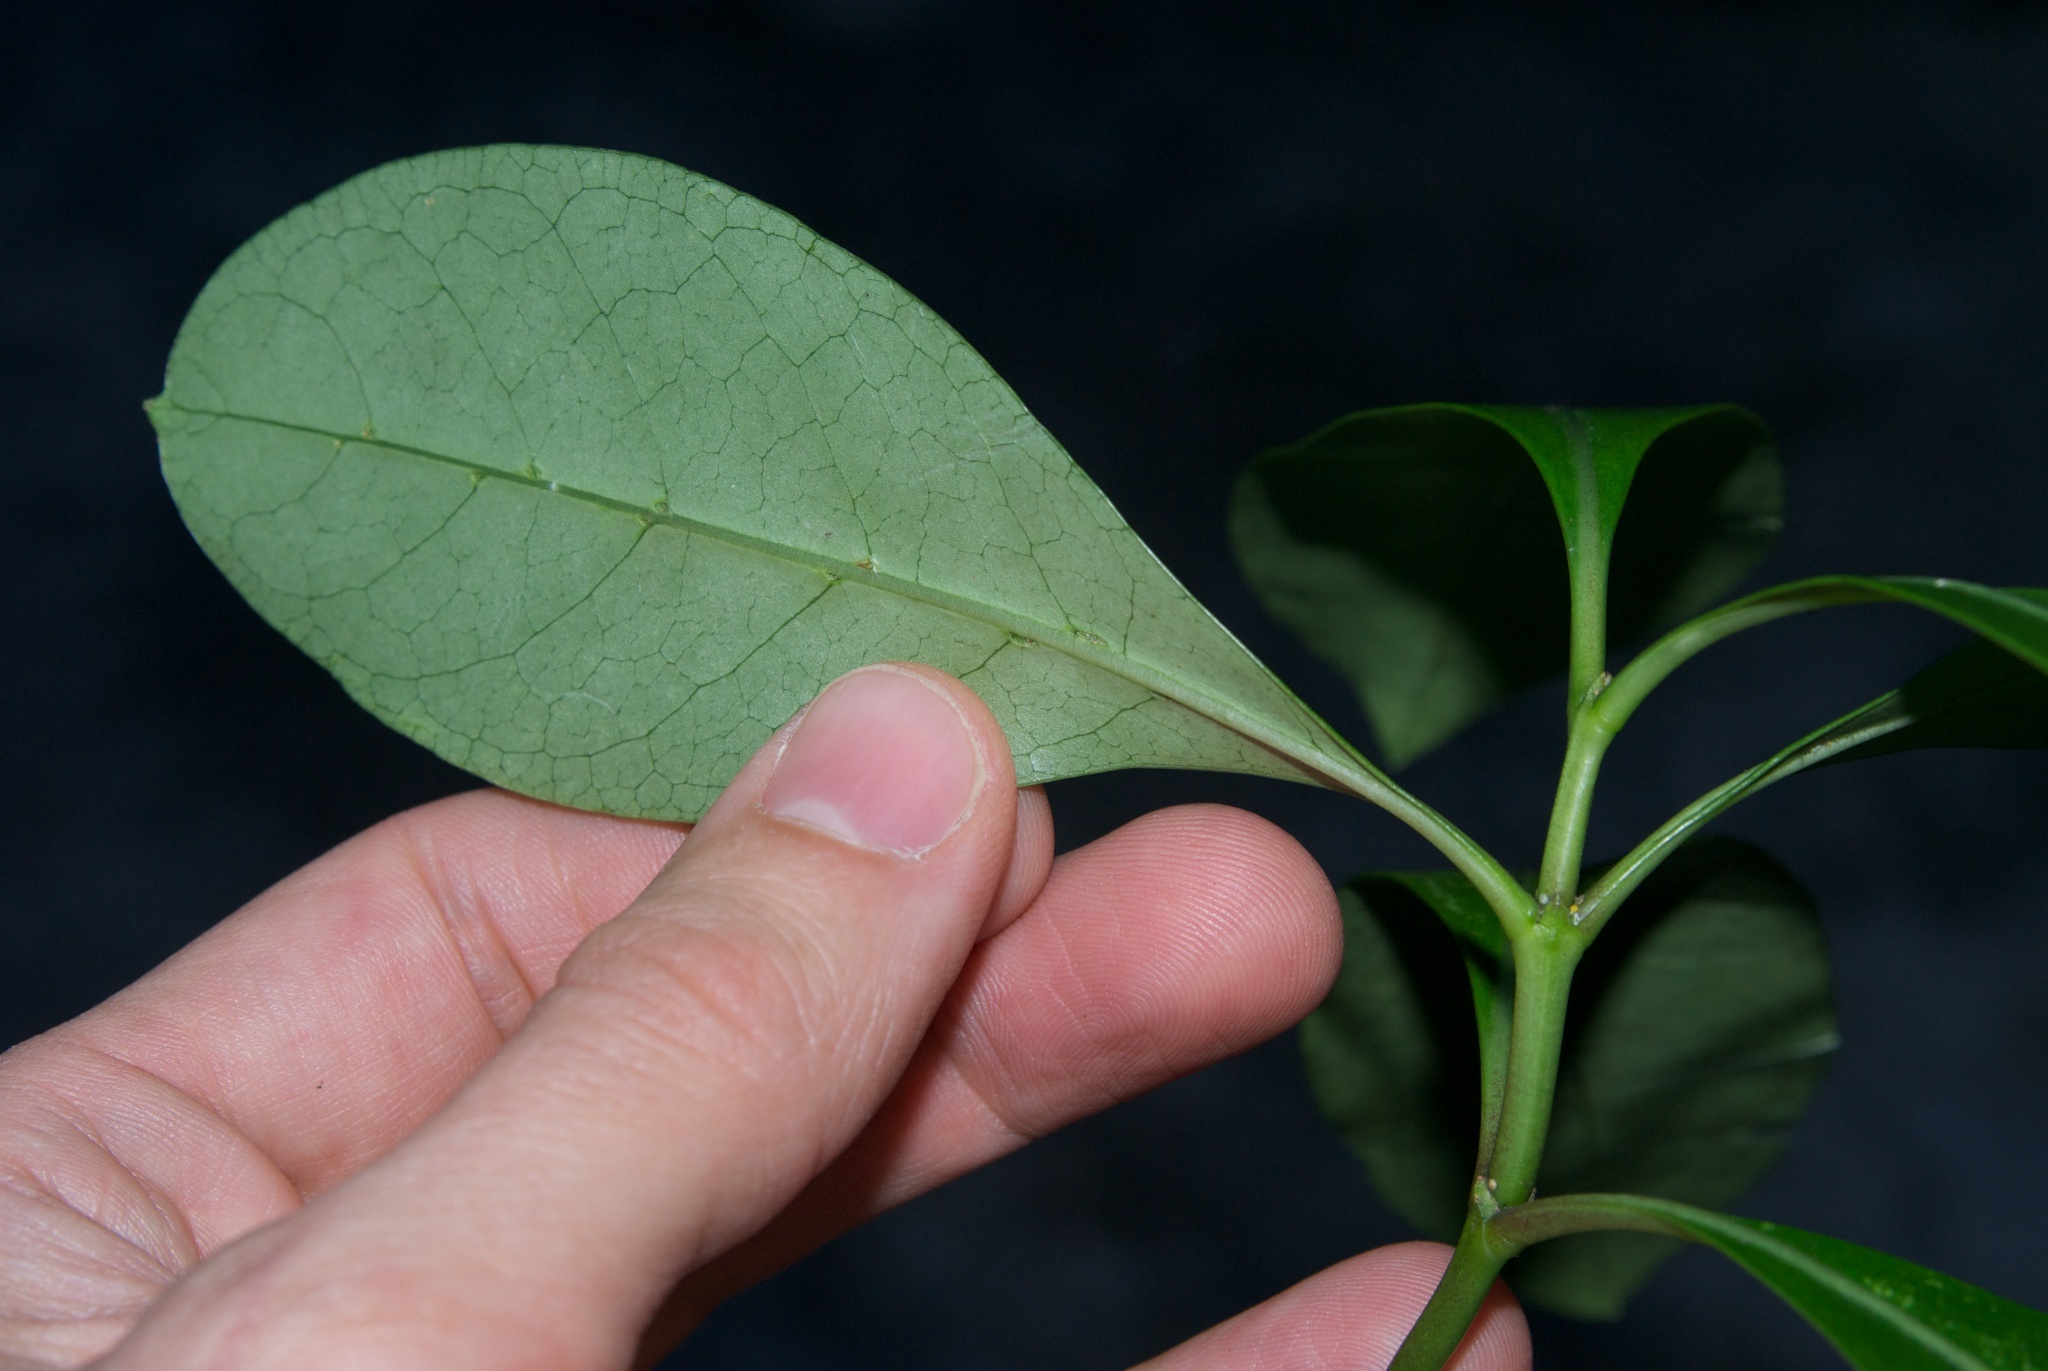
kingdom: Plantae
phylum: Tracheophyta
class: Magnoliopsida
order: Gentianales
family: Rubiaceae
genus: Coprosma
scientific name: Coprosma lucida
